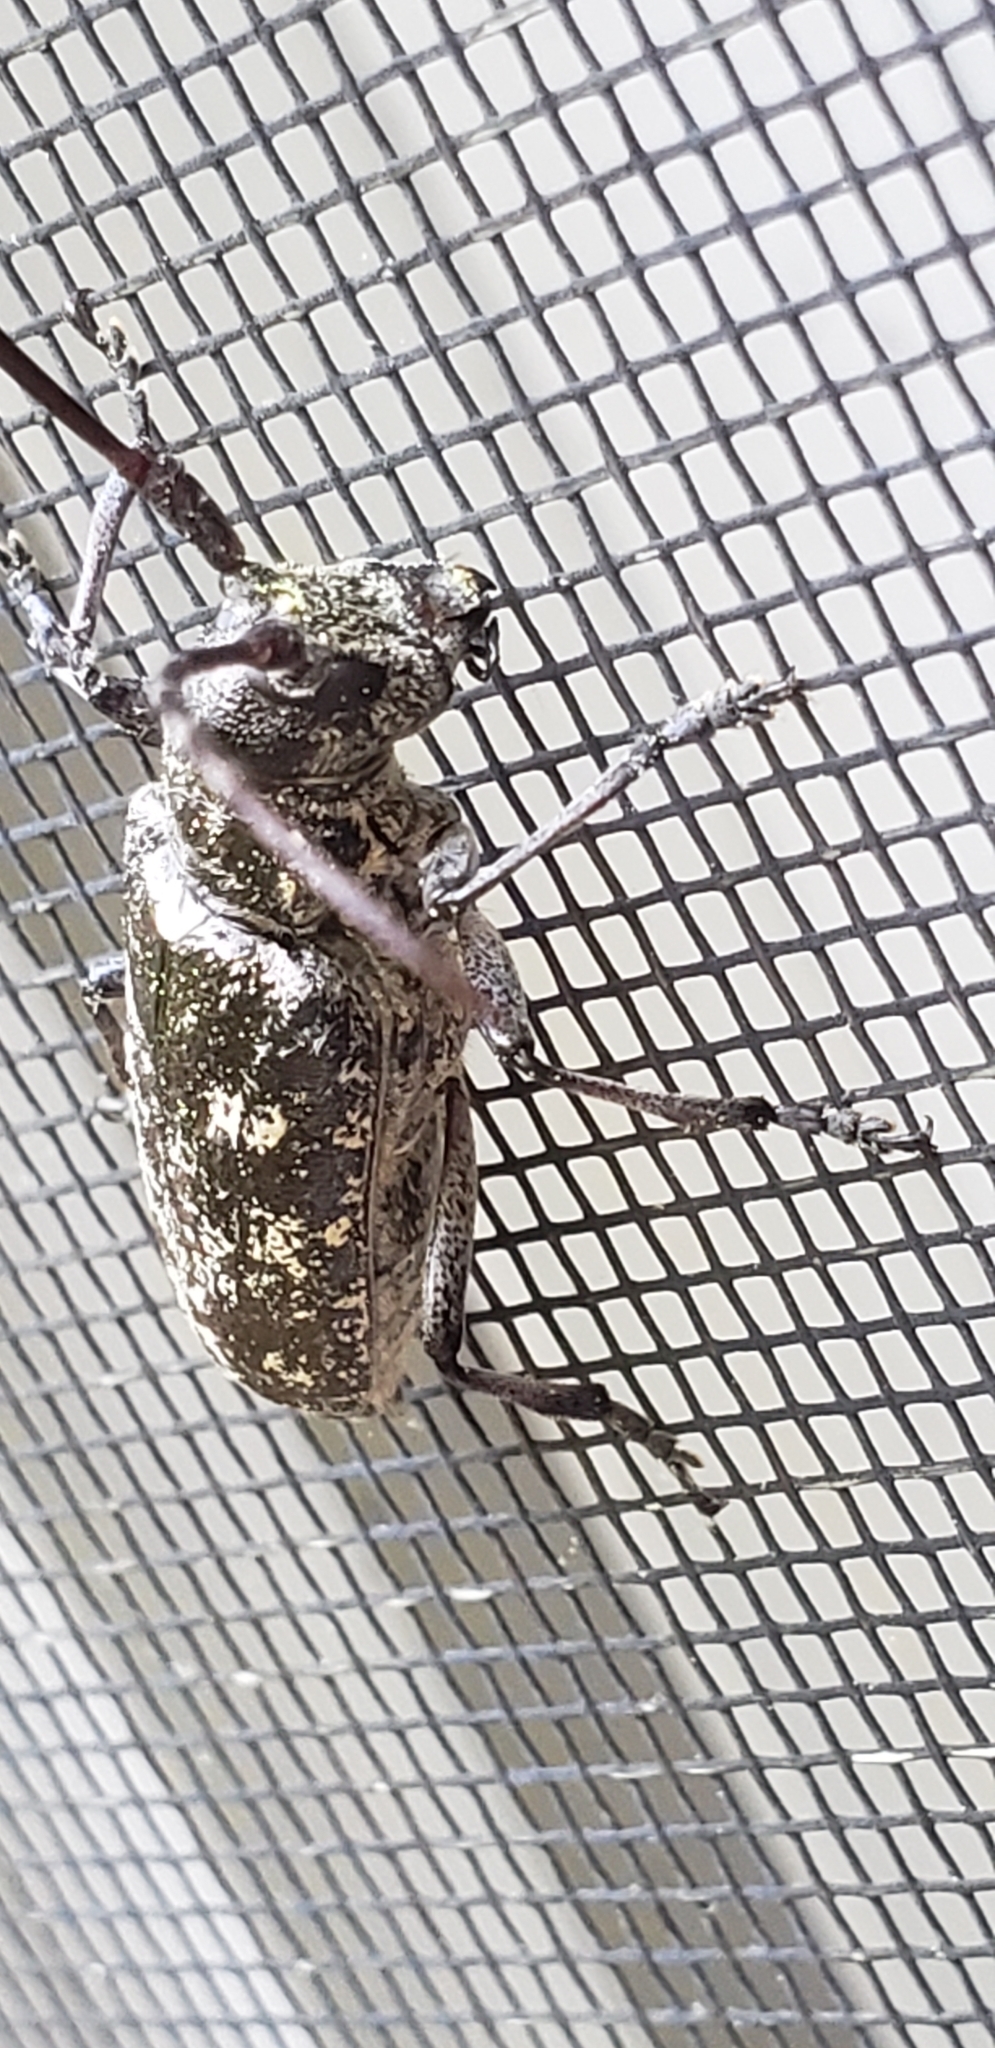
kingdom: Animalia
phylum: Arthropoda
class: Insecta
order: Coleoptera
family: Cerambycidae
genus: Monochamus
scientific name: Monochamus scutellatus
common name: White-spotted sawyer beetle
